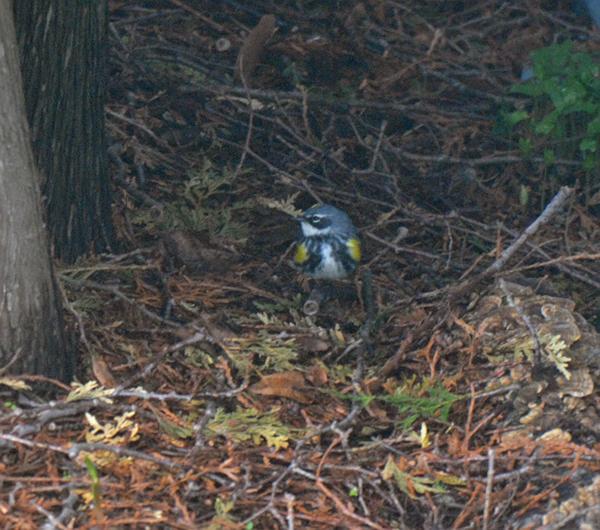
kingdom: Animalia
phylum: Chordata
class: Aves
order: Passeriformes
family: Parulidae
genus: Setophaga
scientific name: Setophaga coronata
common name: Myrtle warbler
